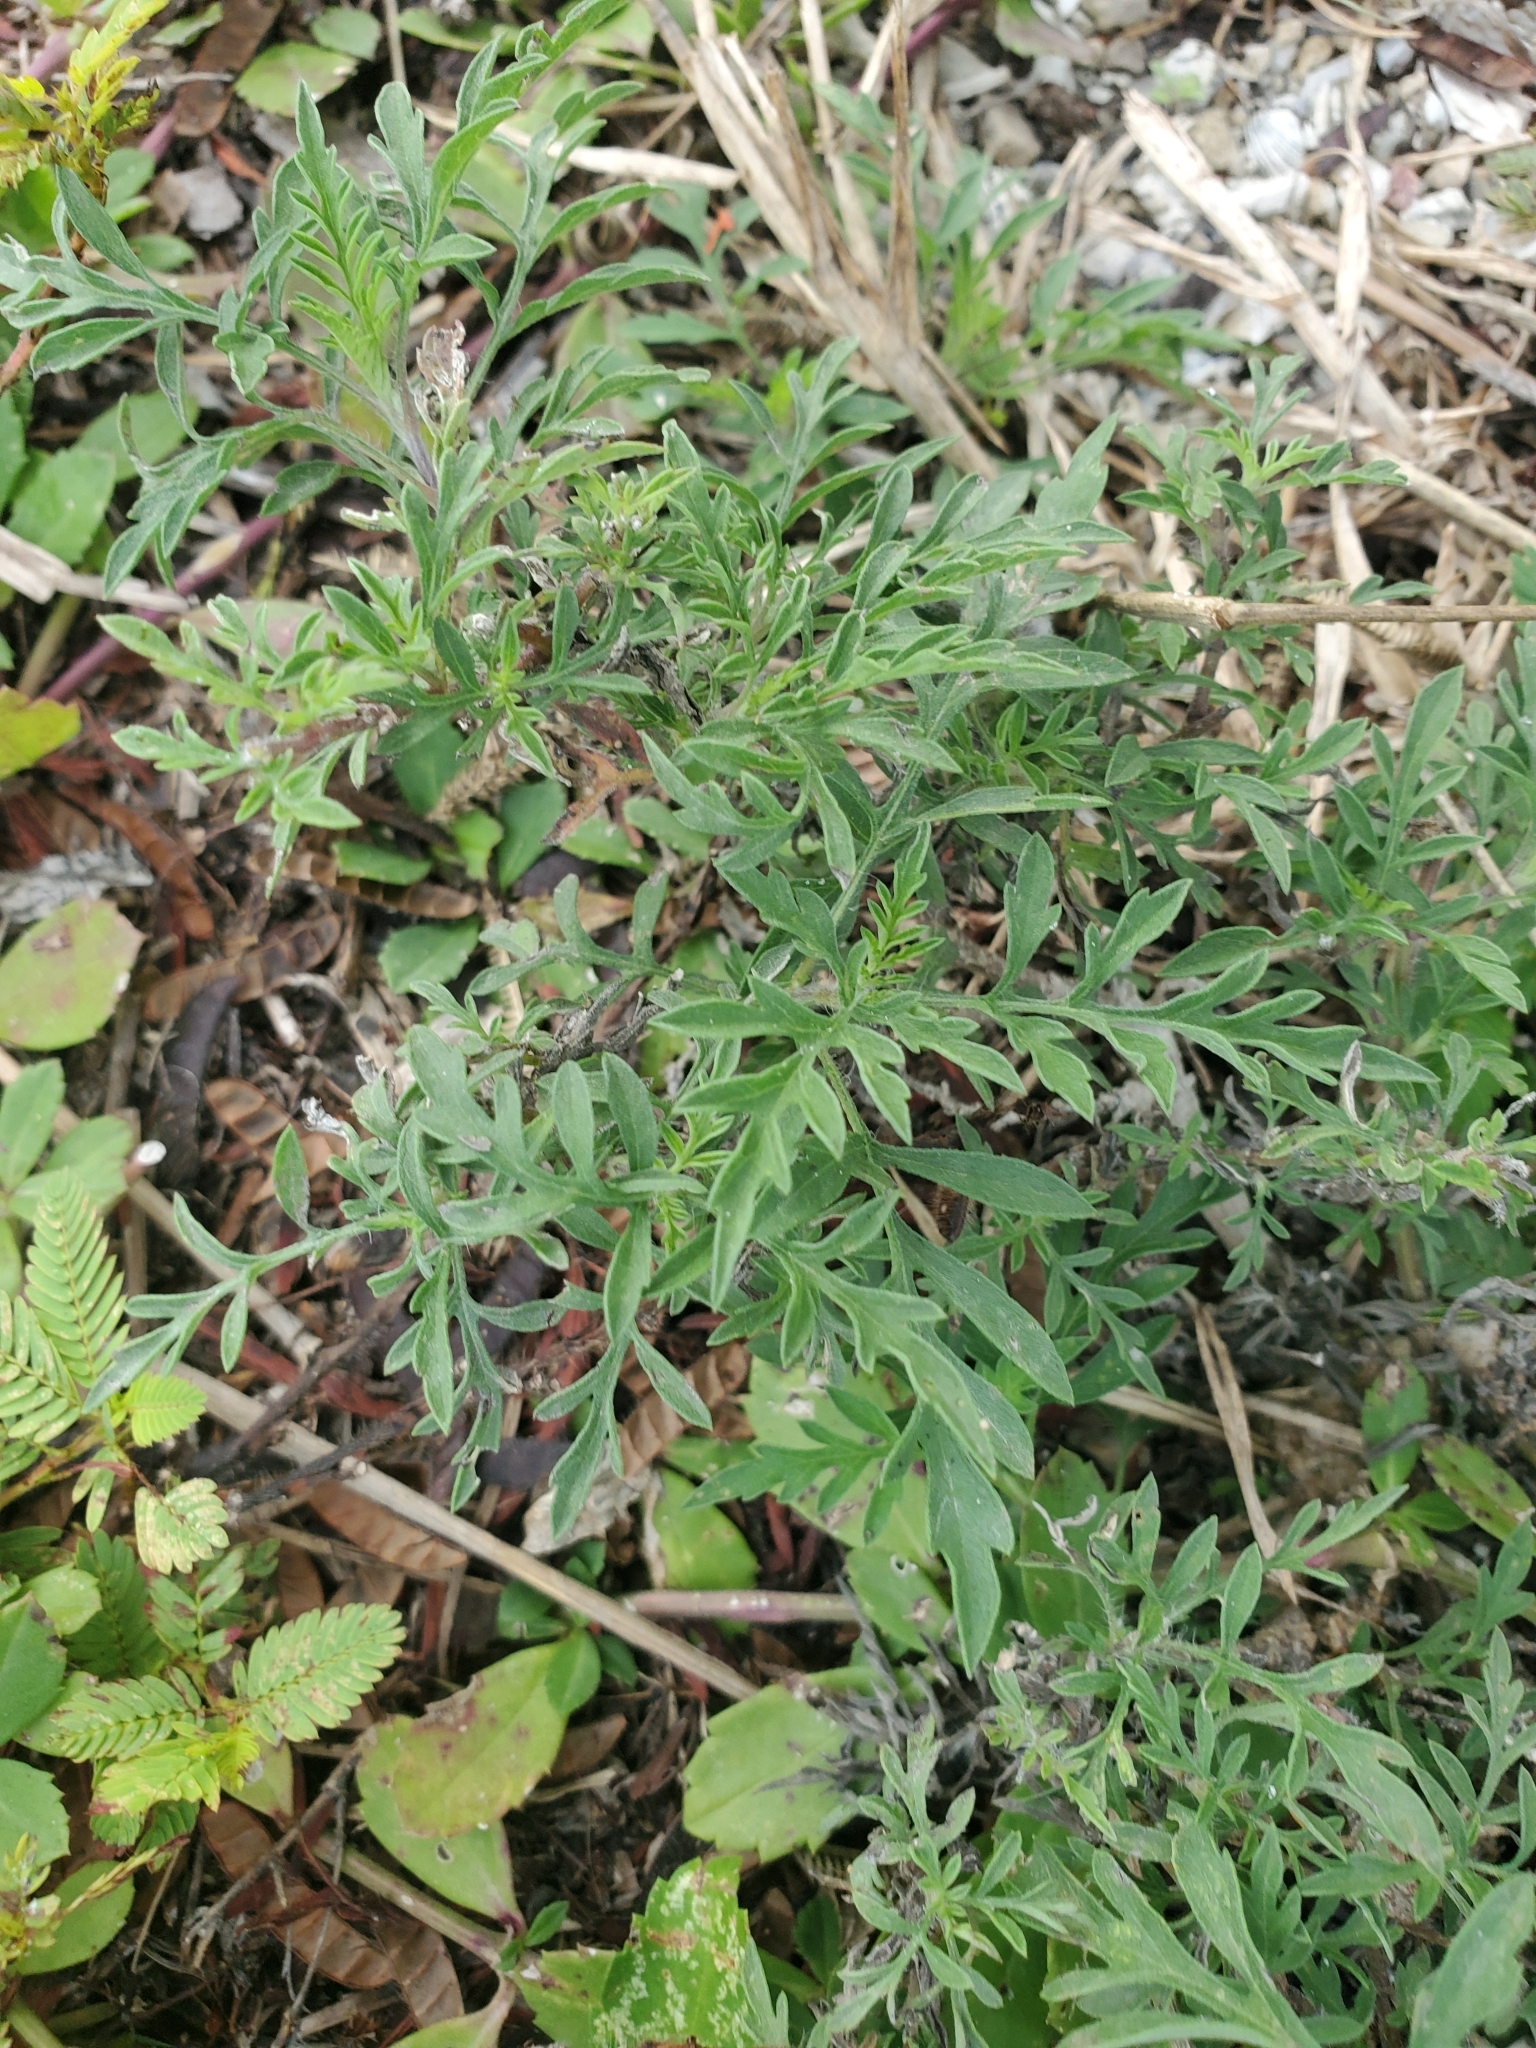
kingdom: Plantae
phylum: Tracheophyta
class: Magnoliopsida
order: Asterales
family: Asteraceae
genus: Ambrosia
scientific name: Ambrosia artemisiifolia
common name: Annual ragweed
